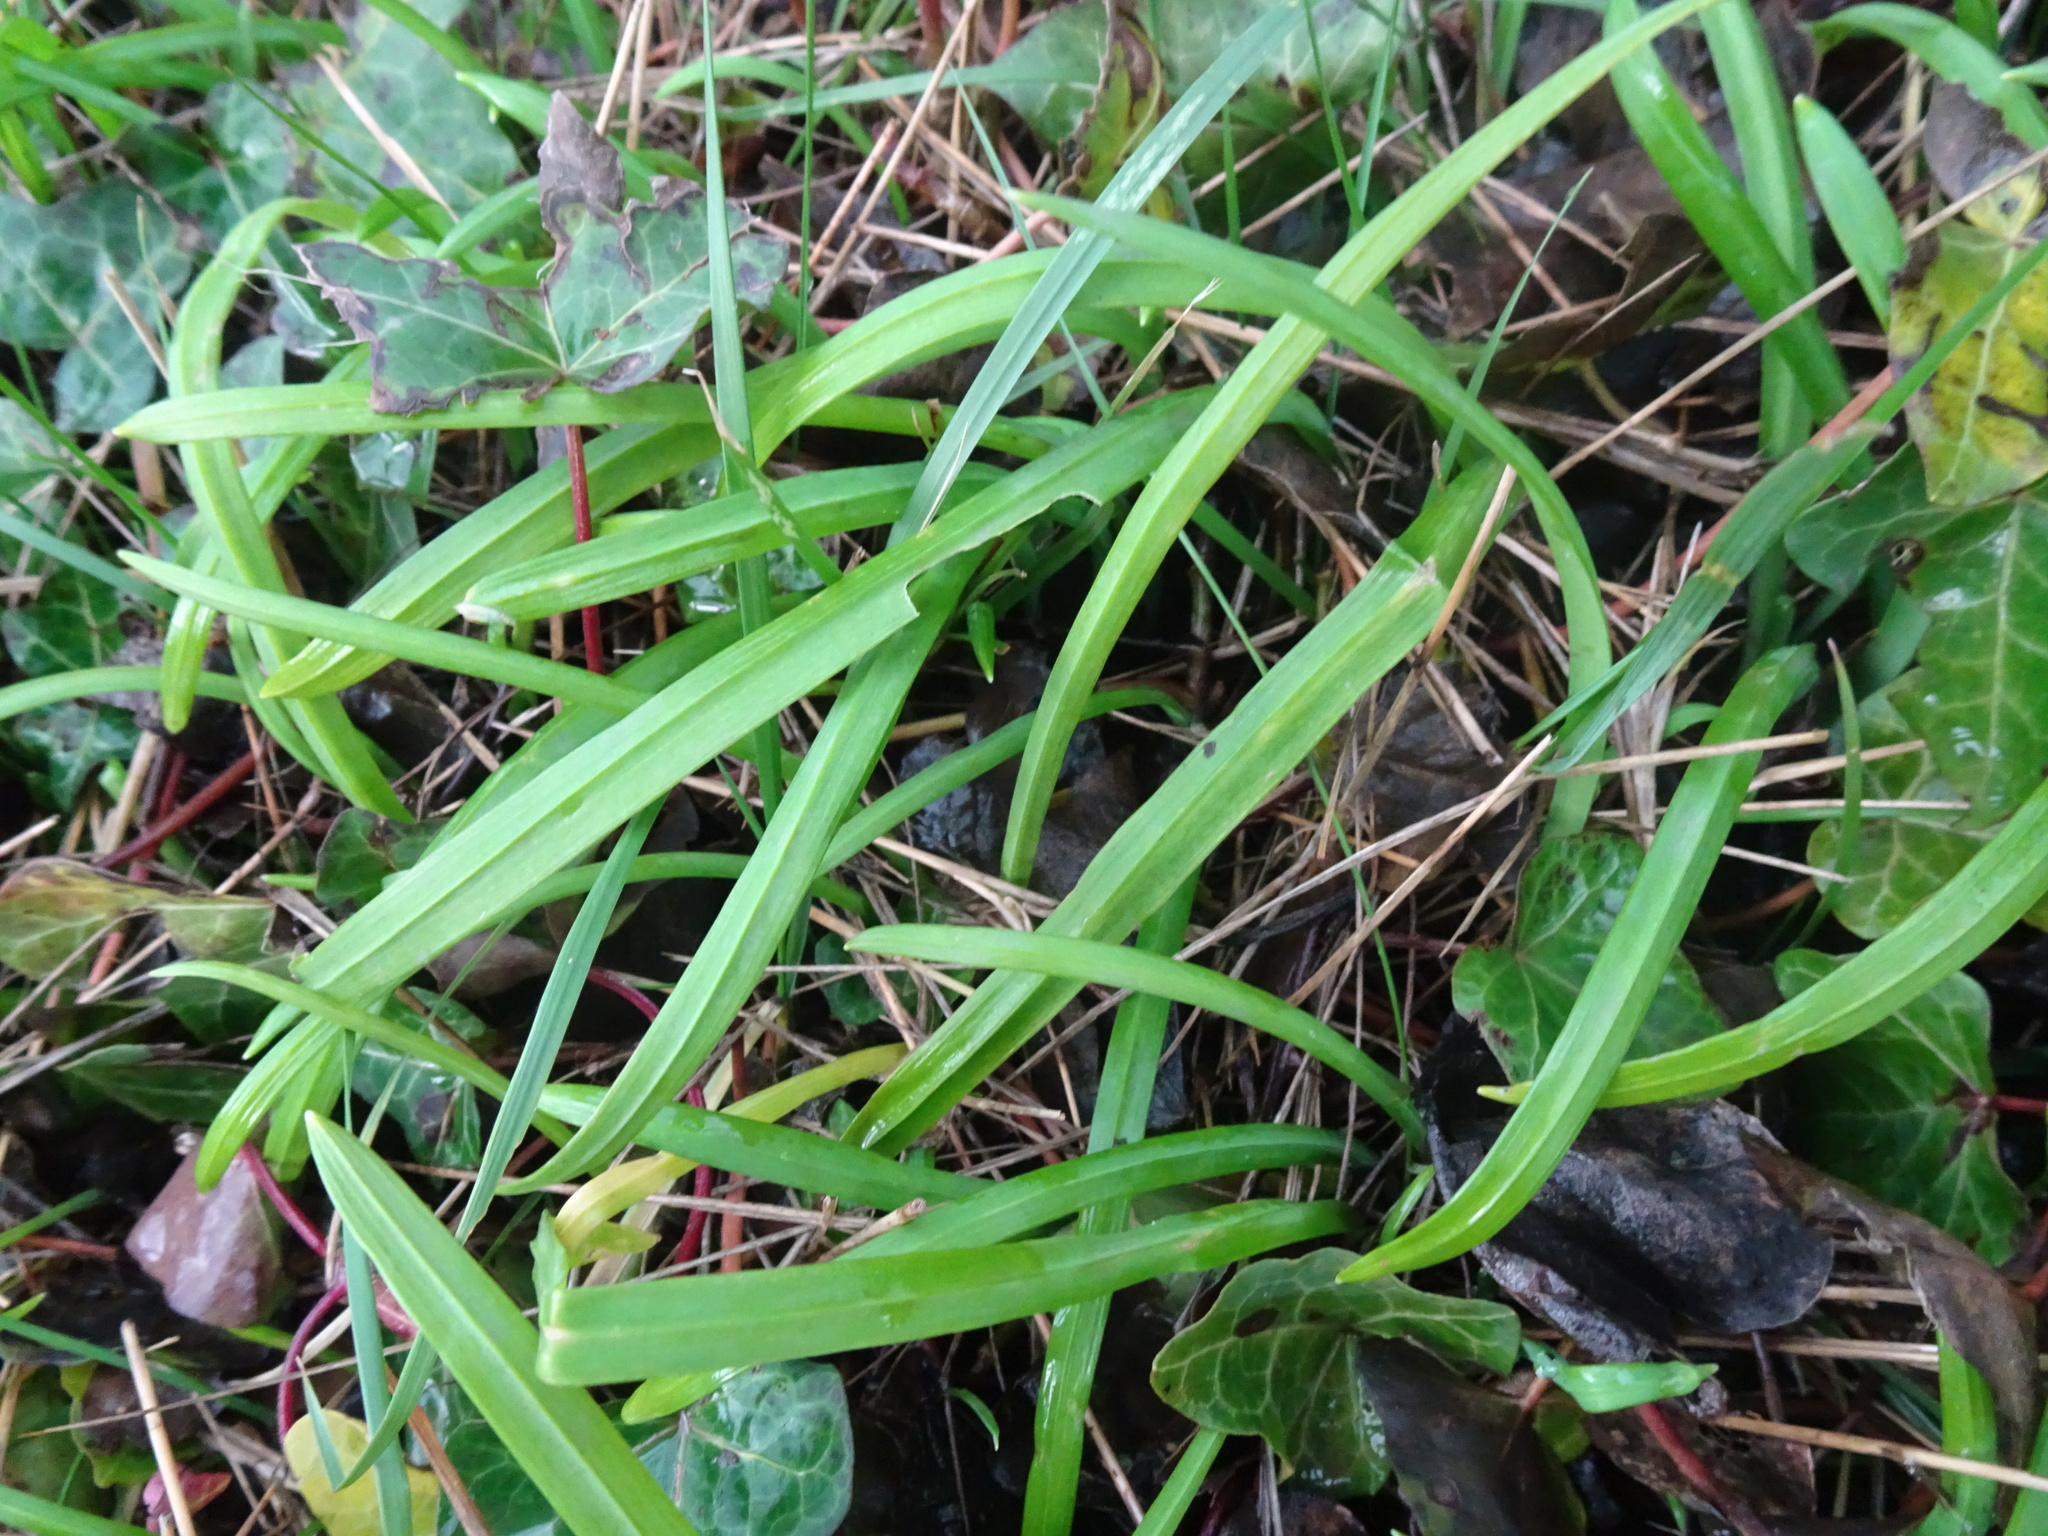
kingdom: Plantae
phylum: Tracheophyta
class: Liliopsida
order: Asparagales
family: Amaryllidaceae
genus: Allium
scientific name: Allium triquetrum
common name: Three-cornered garlic
